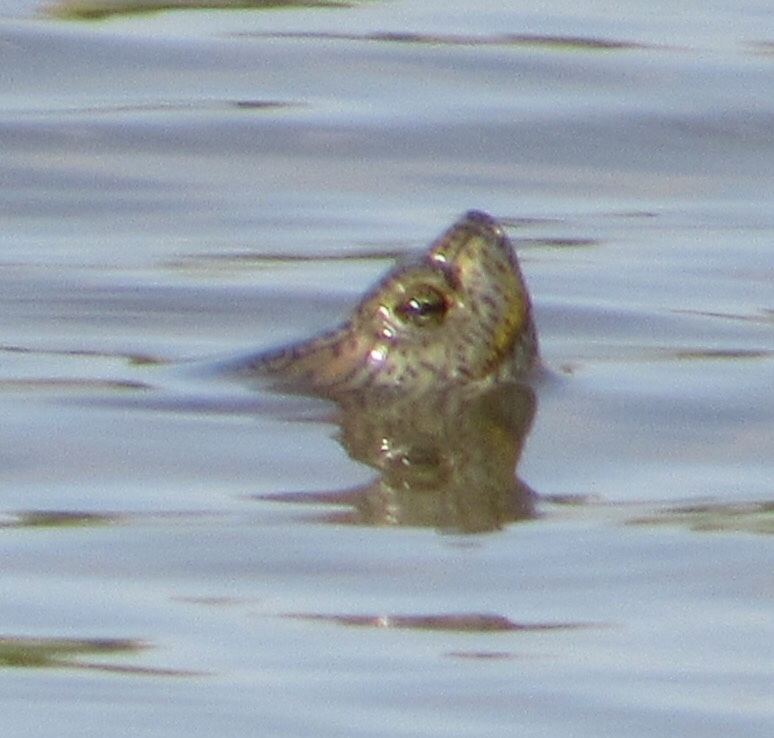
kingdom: Animalia
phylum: Chordata
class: Testudines
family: Emydidae
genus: Trachemys
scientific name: Trachemys scripta
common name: Slider
